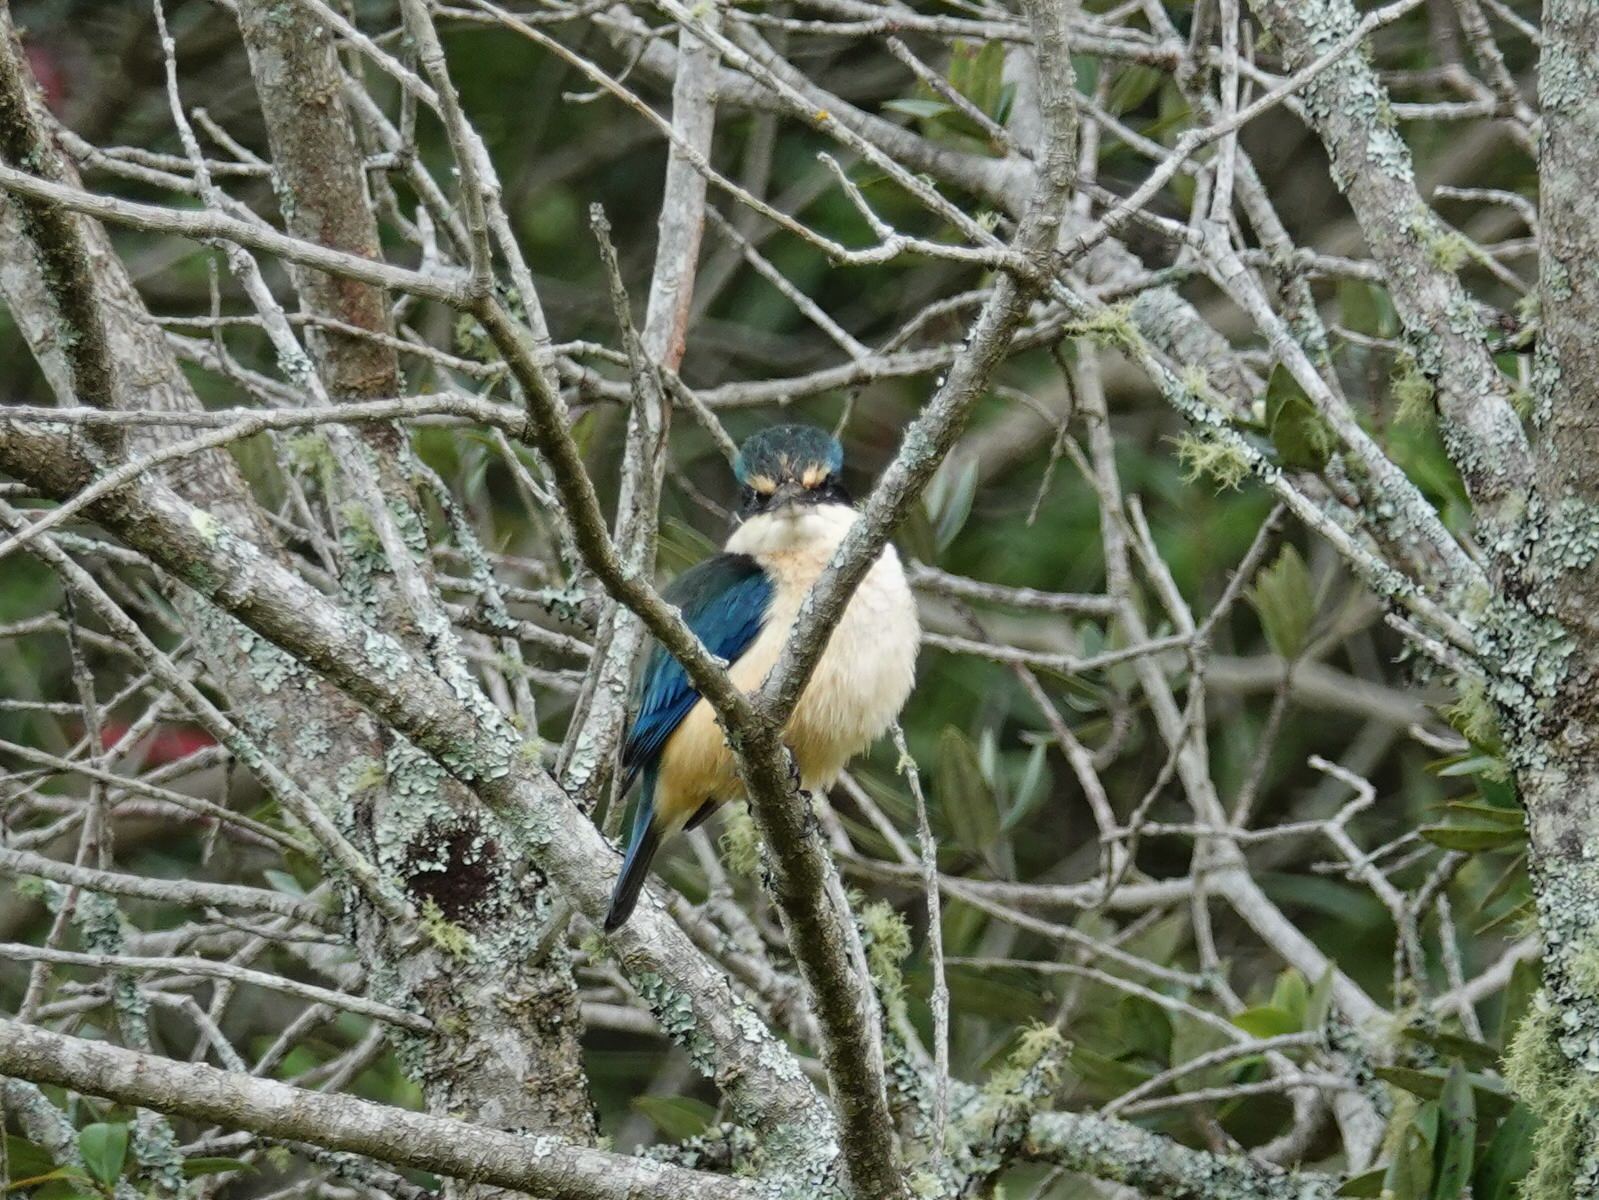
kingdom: Animalia
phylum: Chordata
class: Aves
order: Coraciiformes
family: Alcedinidae
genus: Todiramphus
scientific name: Todiramphus sanctus
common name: Sacred kingfisher
